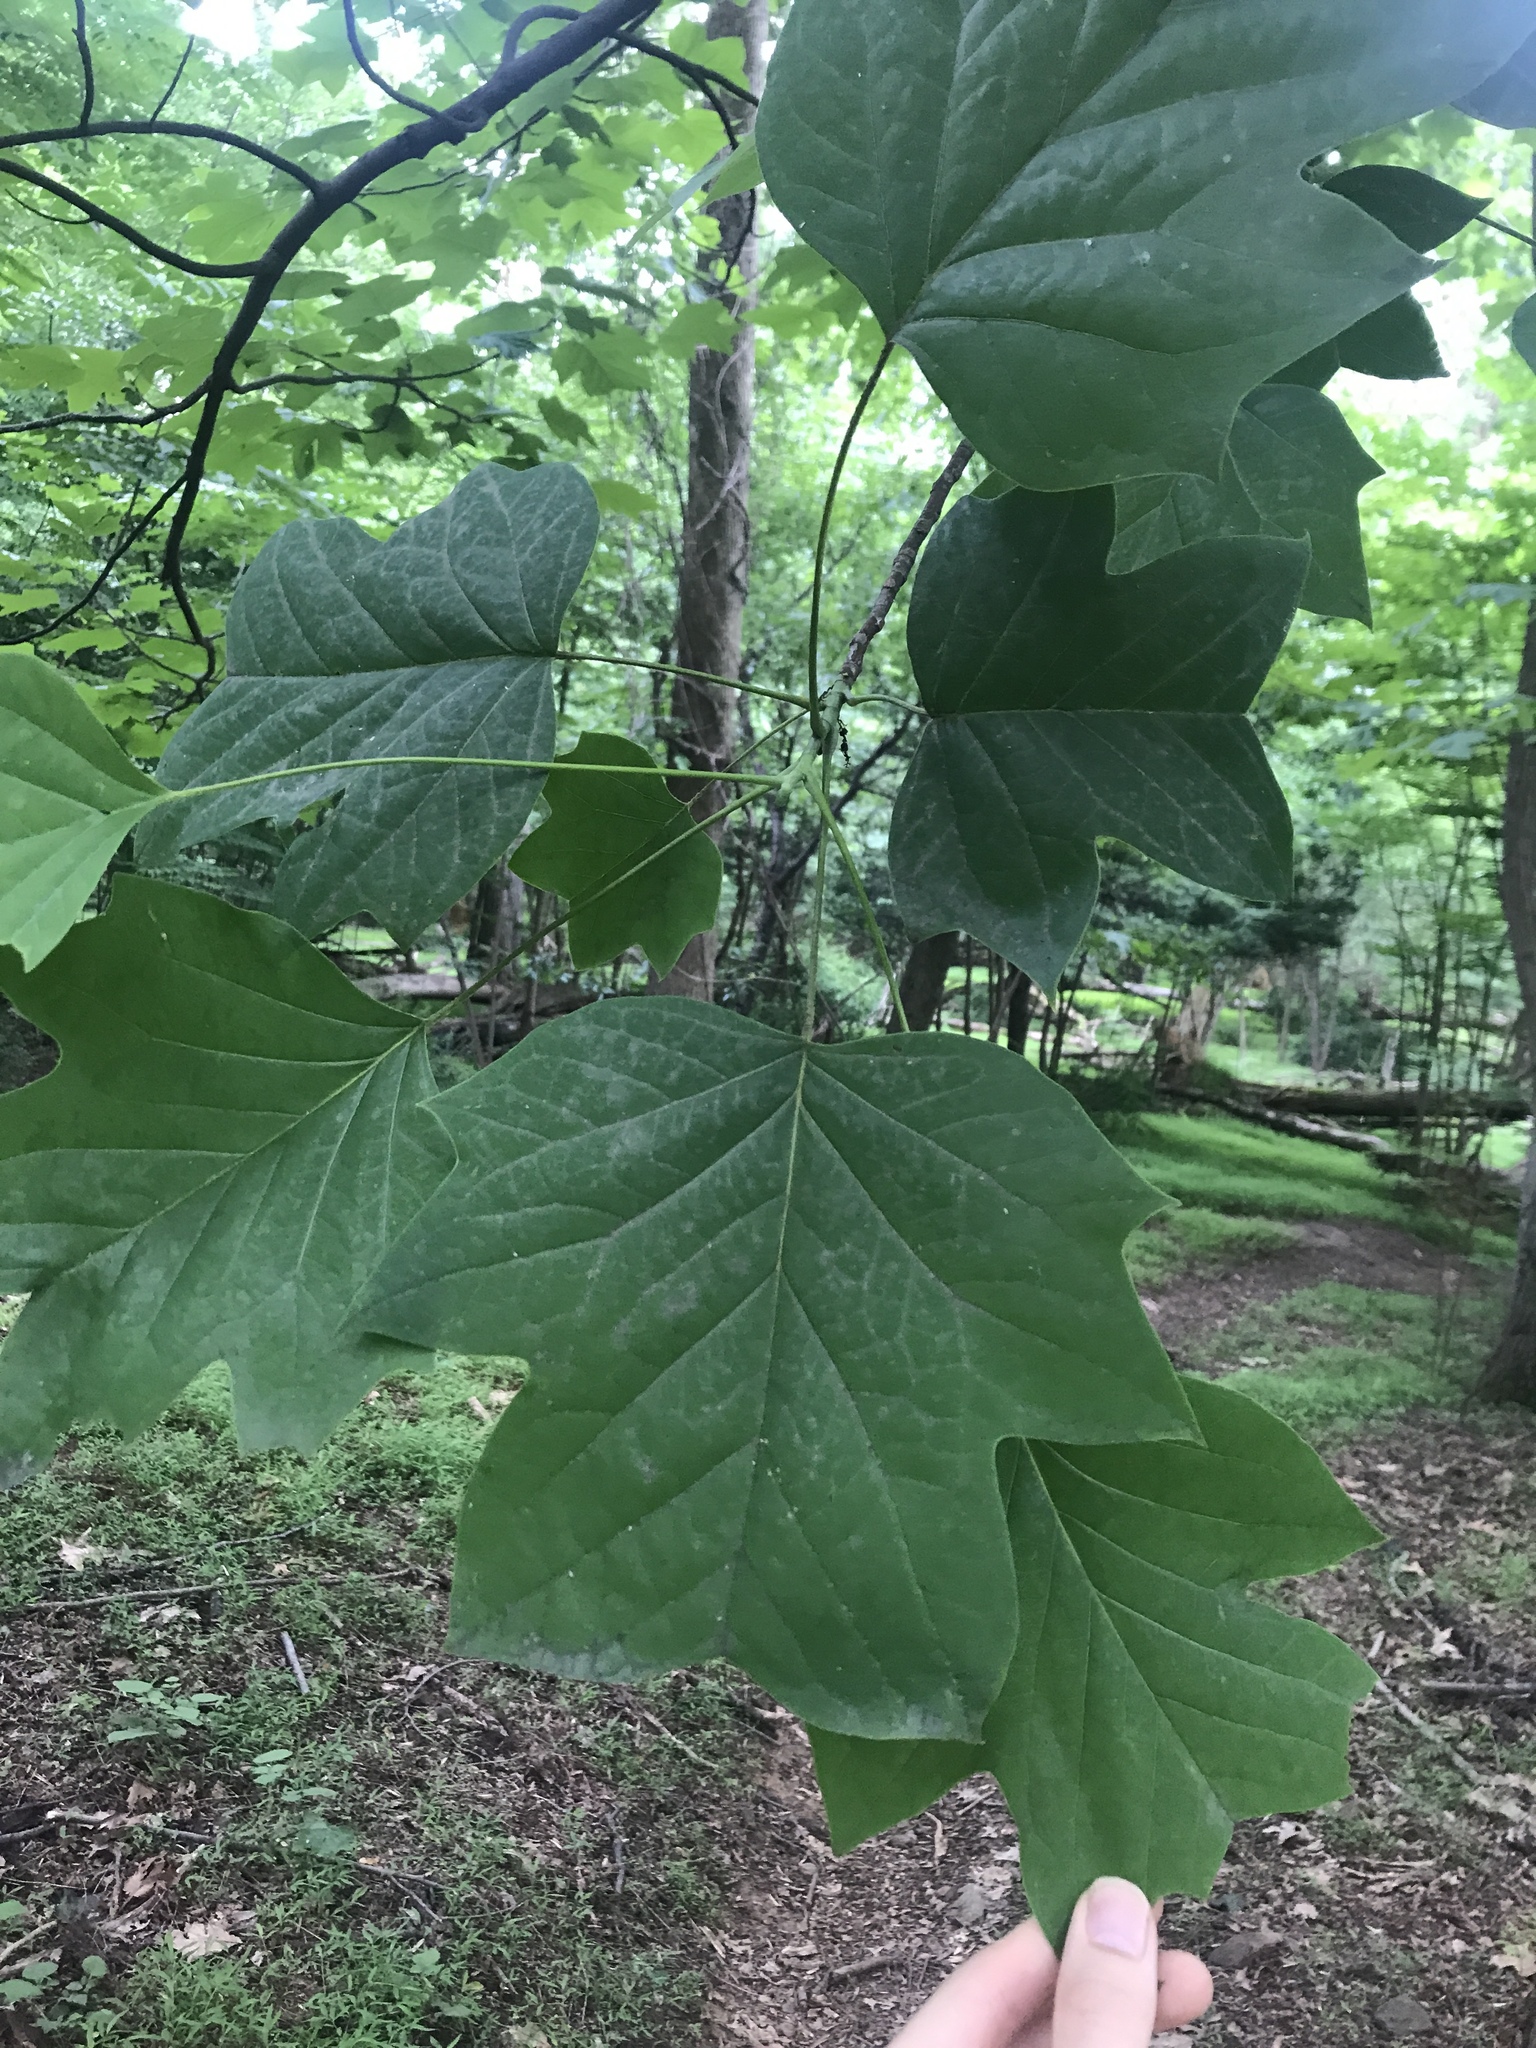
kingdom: Plantae
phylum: Tracheophyta
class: Magnoliopsida
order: Magnoliales
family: Magnoliaceae
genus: Liriodendron
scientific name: Liriodendron tulipifera
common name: Tulip tree
